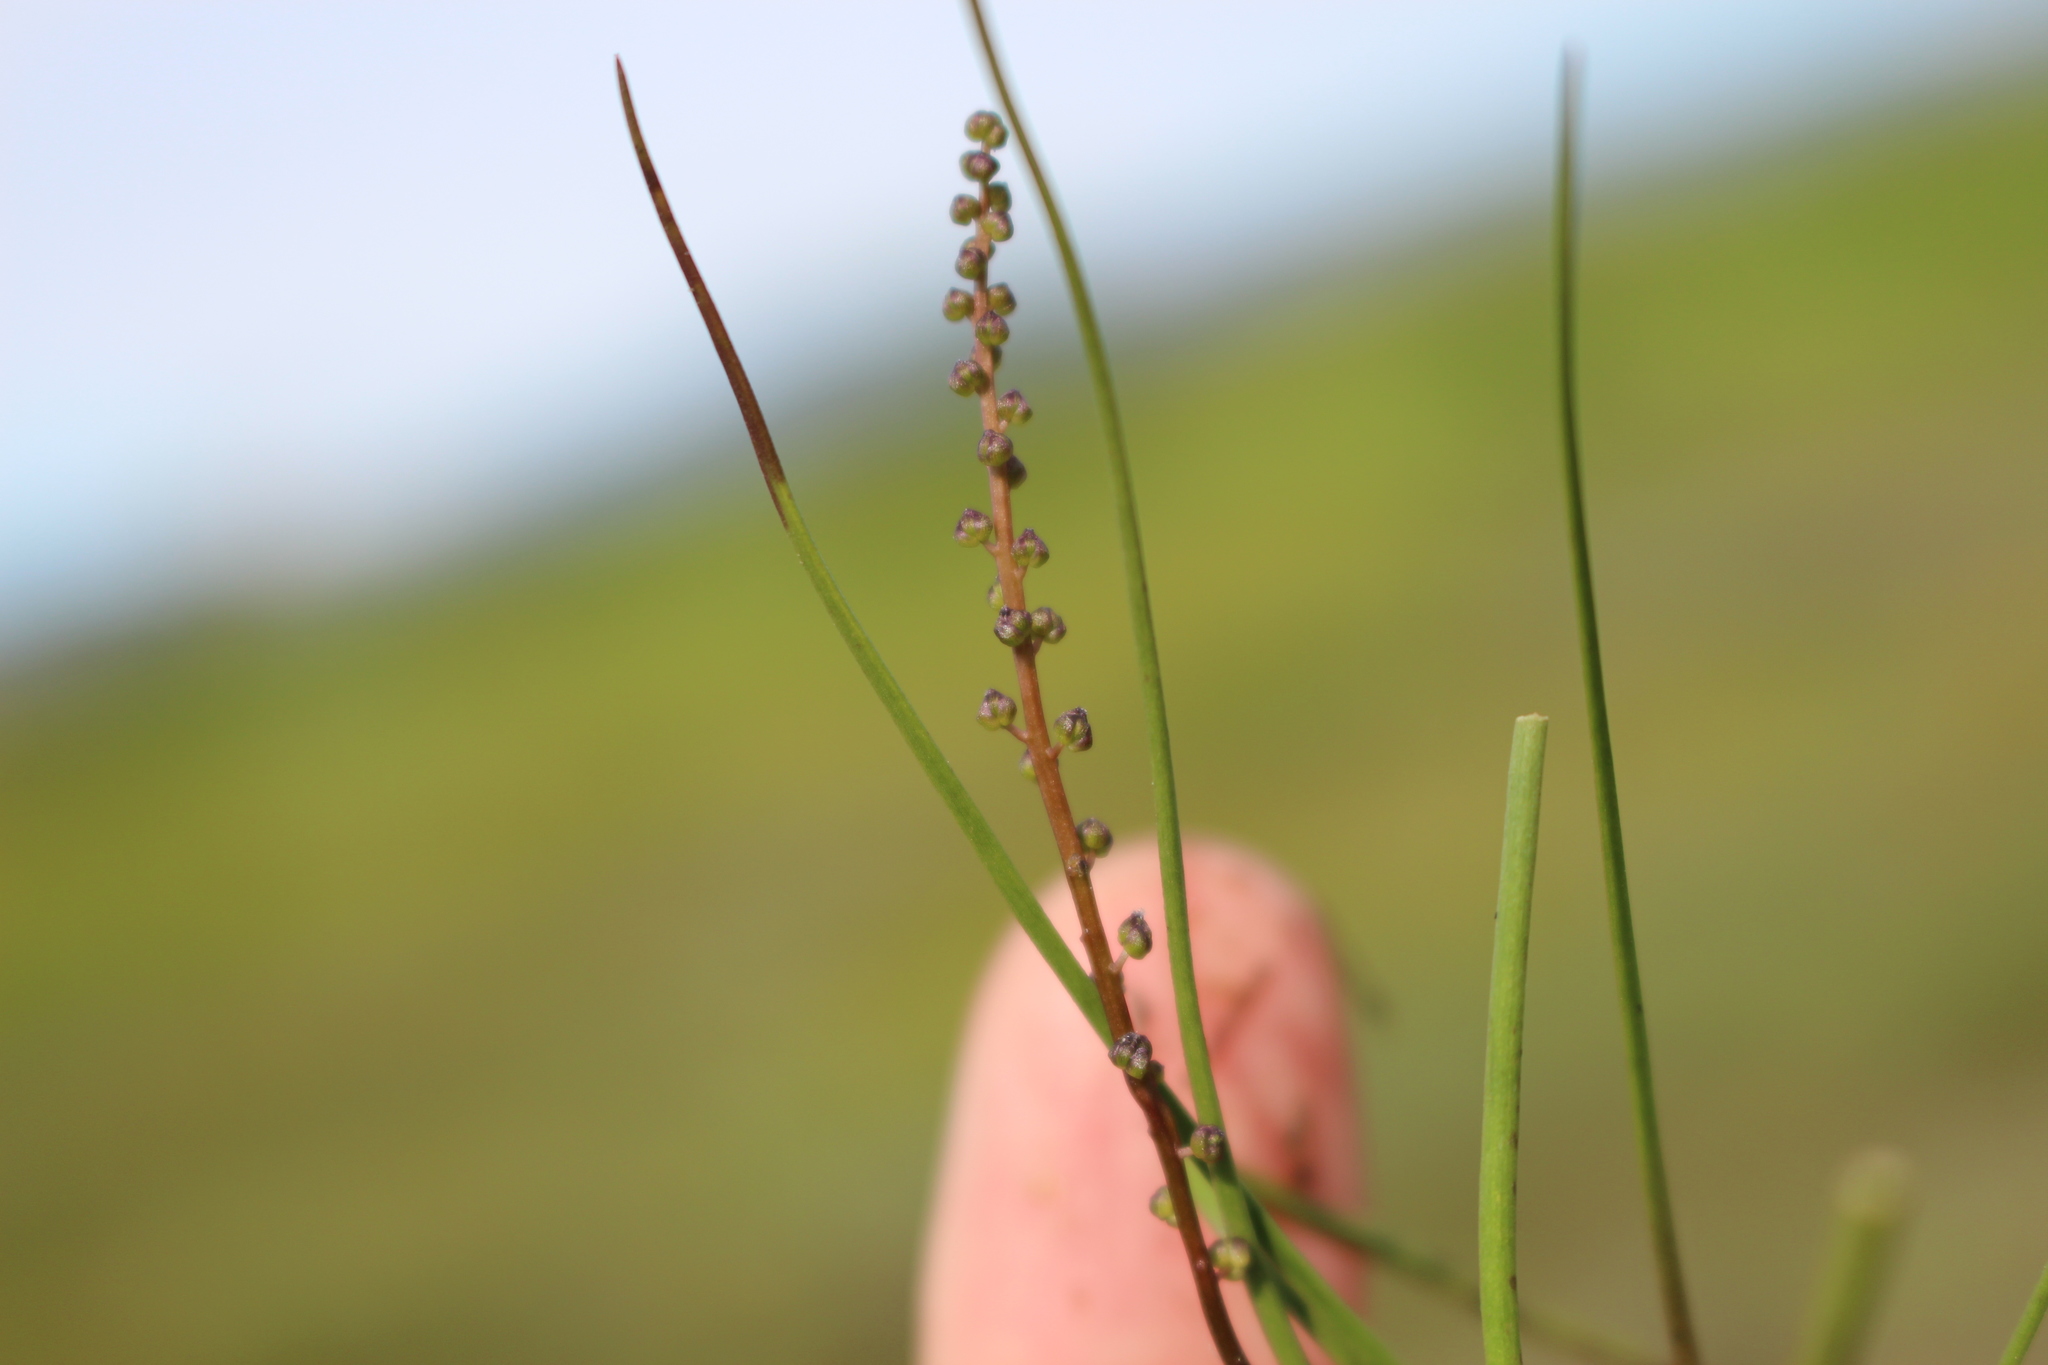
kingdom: Plantae
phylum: Tracheophyta
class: Liliopsida
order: Alismatales
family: Juncaginaceae
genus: Triglochin
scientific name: Triglochin striata
